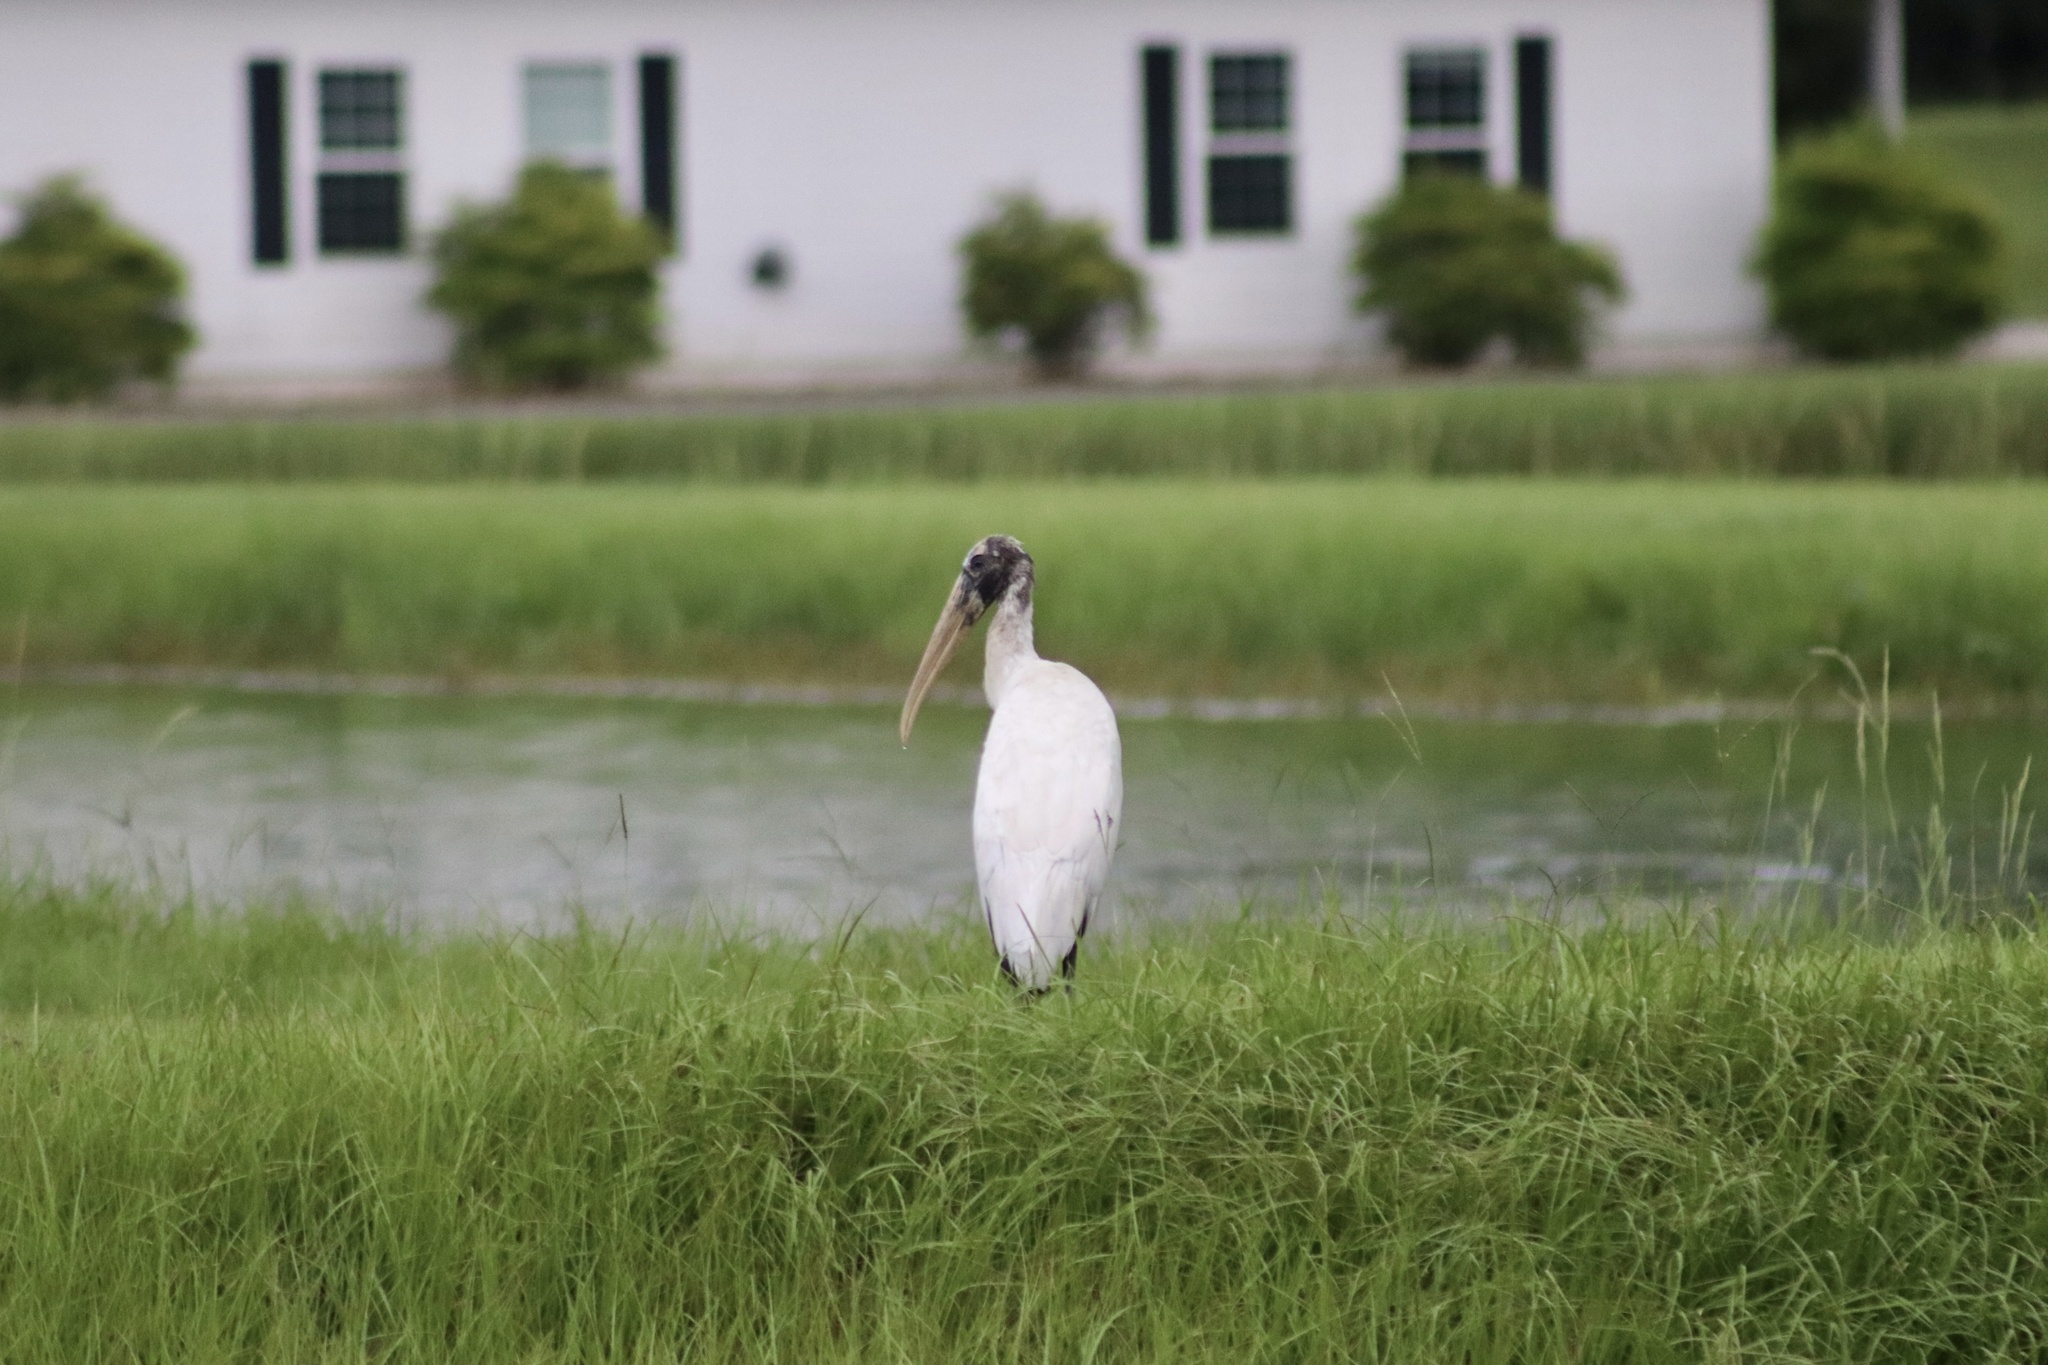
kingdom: Animalia
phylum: Chordata
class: Aves
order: Ciconiiformes
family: Ciconiidae
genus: Mycteria
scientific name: Mycteria americana
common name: Wood stork
